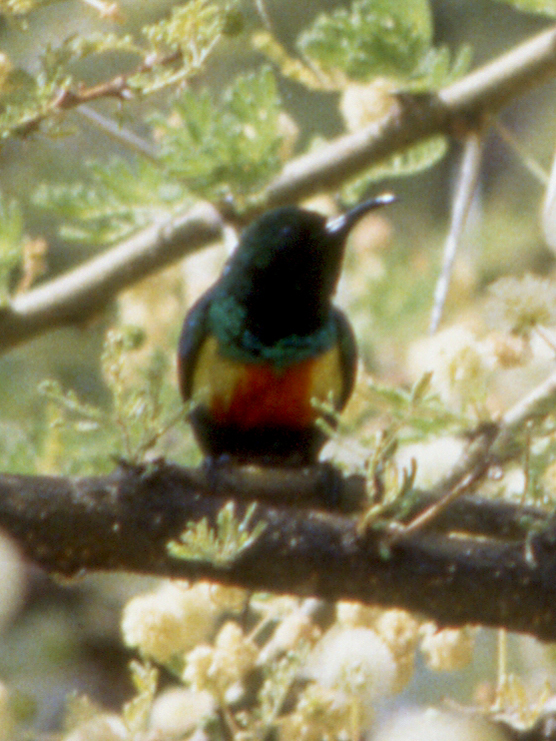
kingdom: Animalia
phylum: Chordata
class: Aves
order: Passeriformes
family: Nectariniidae
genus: Cinnyris
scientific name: Cinnyris pulchellus
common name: Beautiful sunbird
